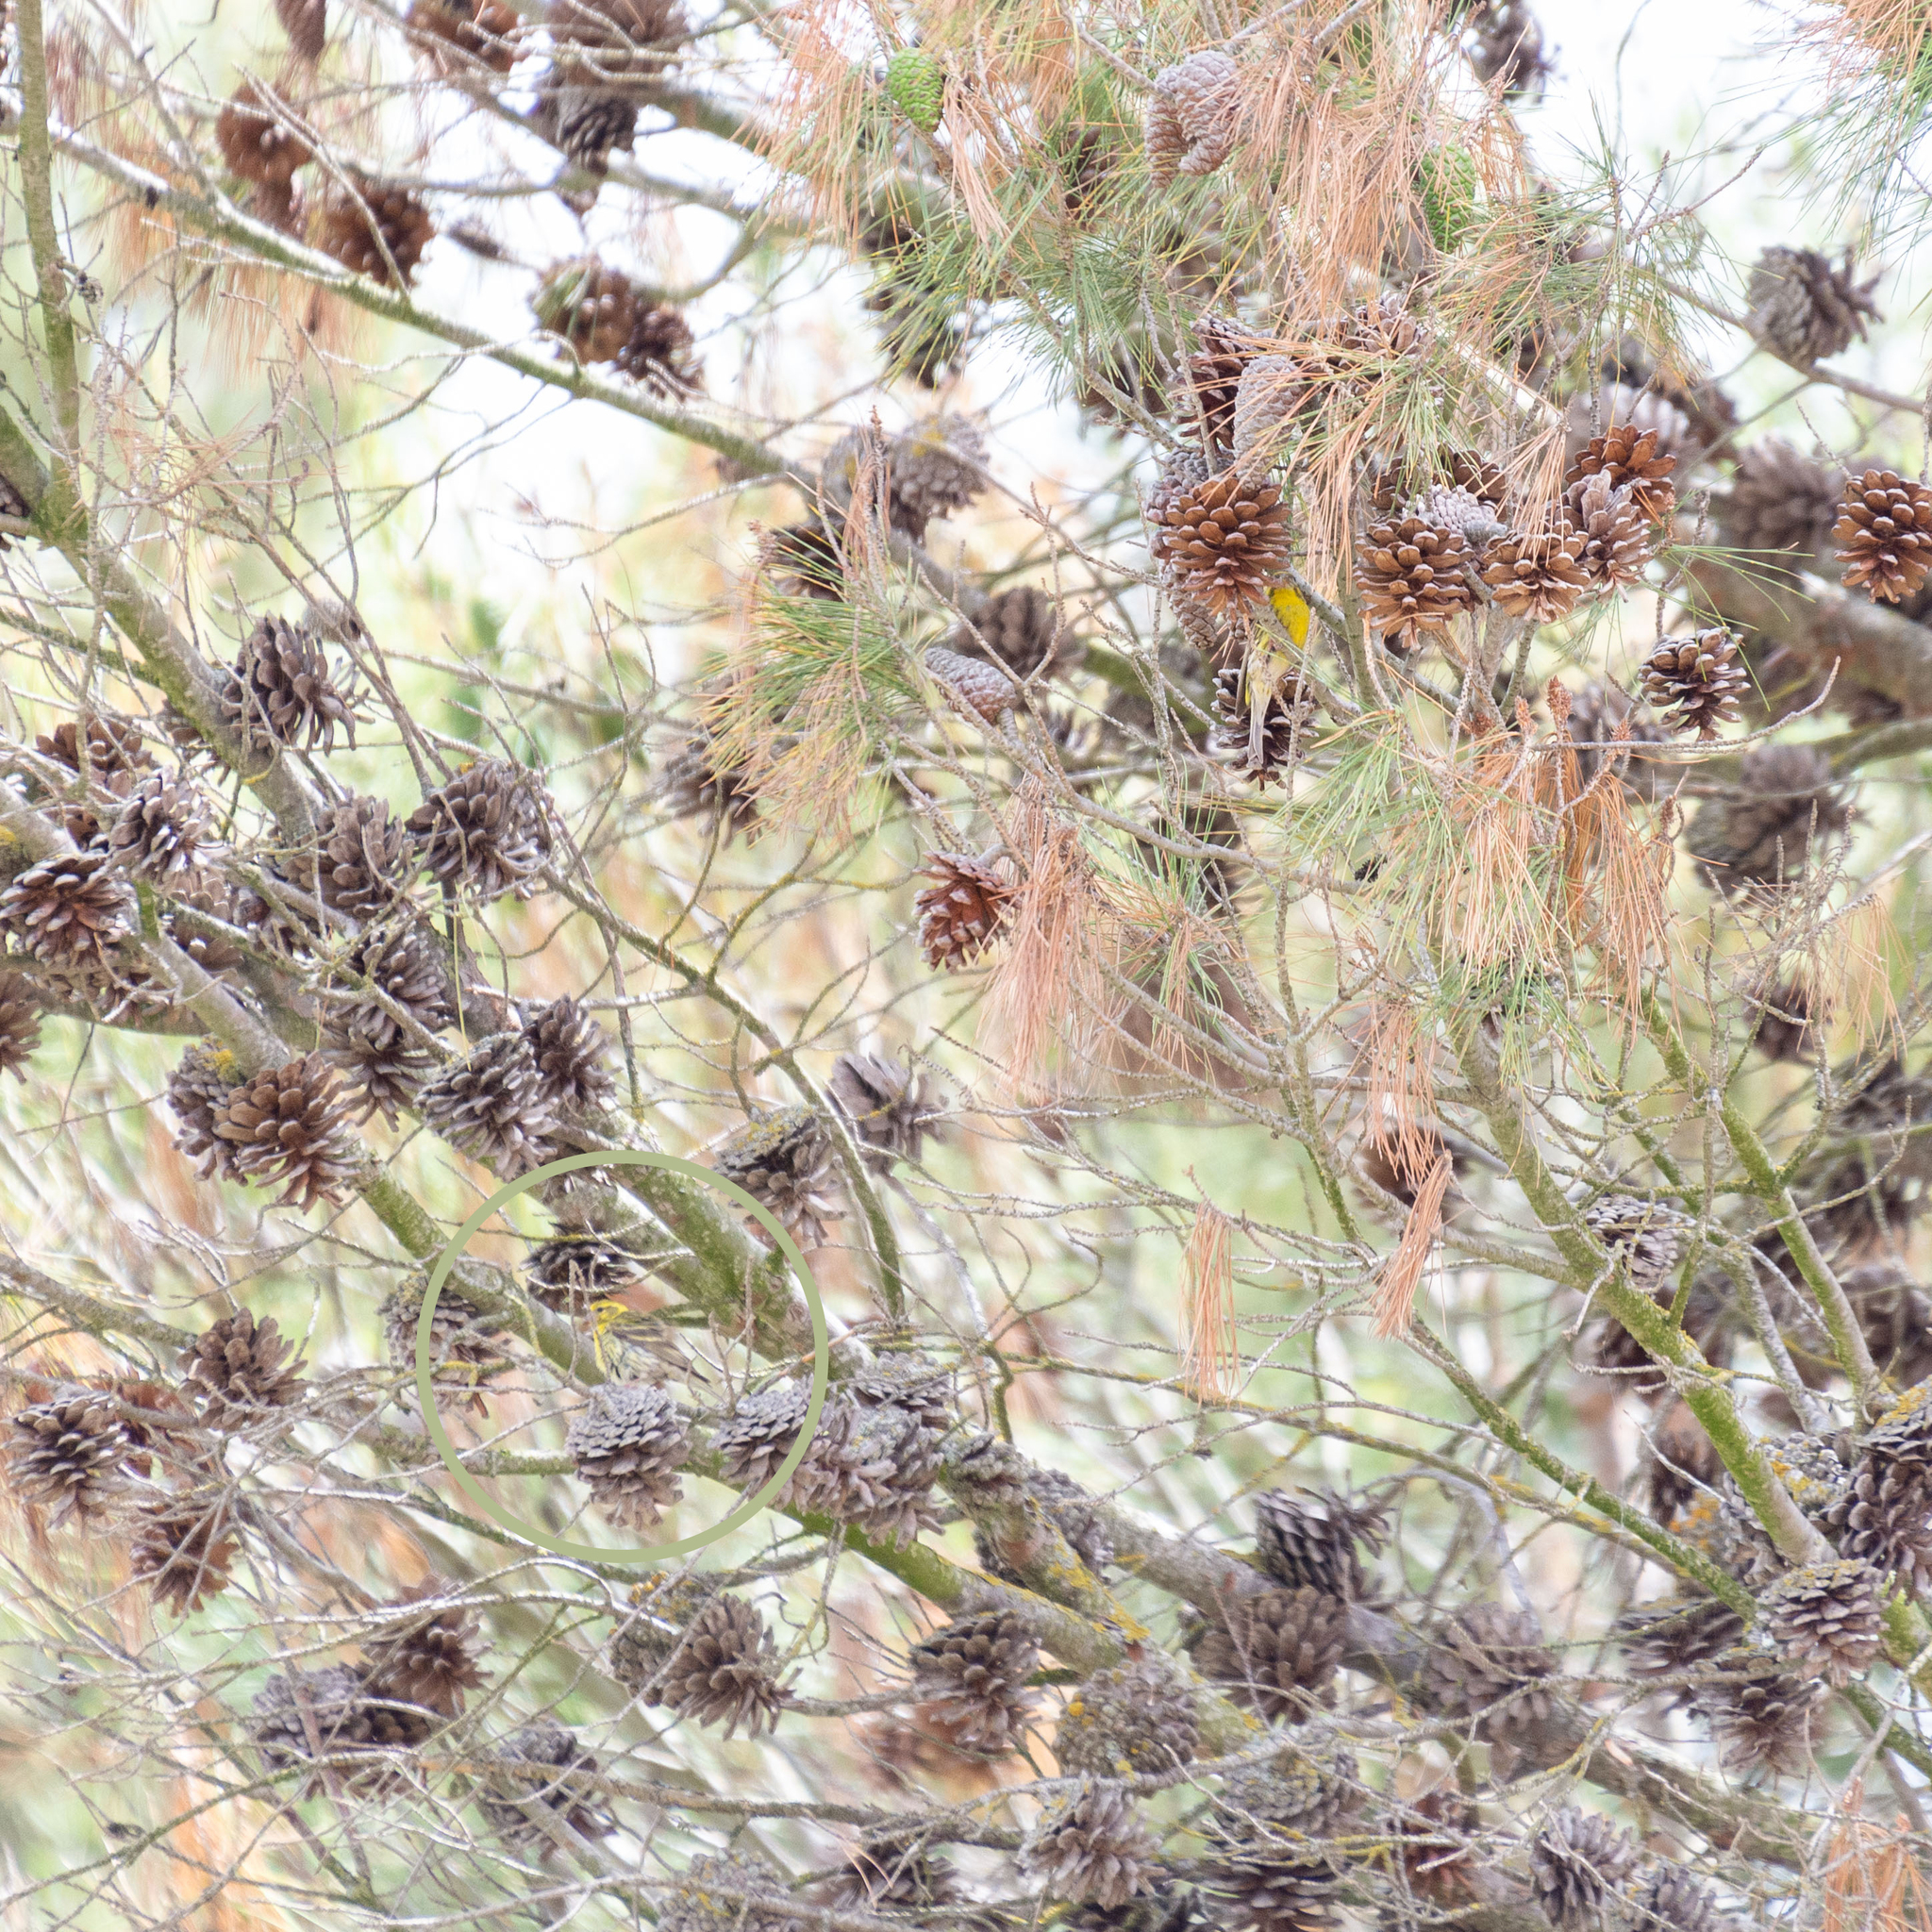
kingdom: Animalia
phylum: Chordata
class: Aves
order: Passeriformes
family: Fringillidae
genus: Serinus
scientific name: Serinus serinus
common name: European serin
